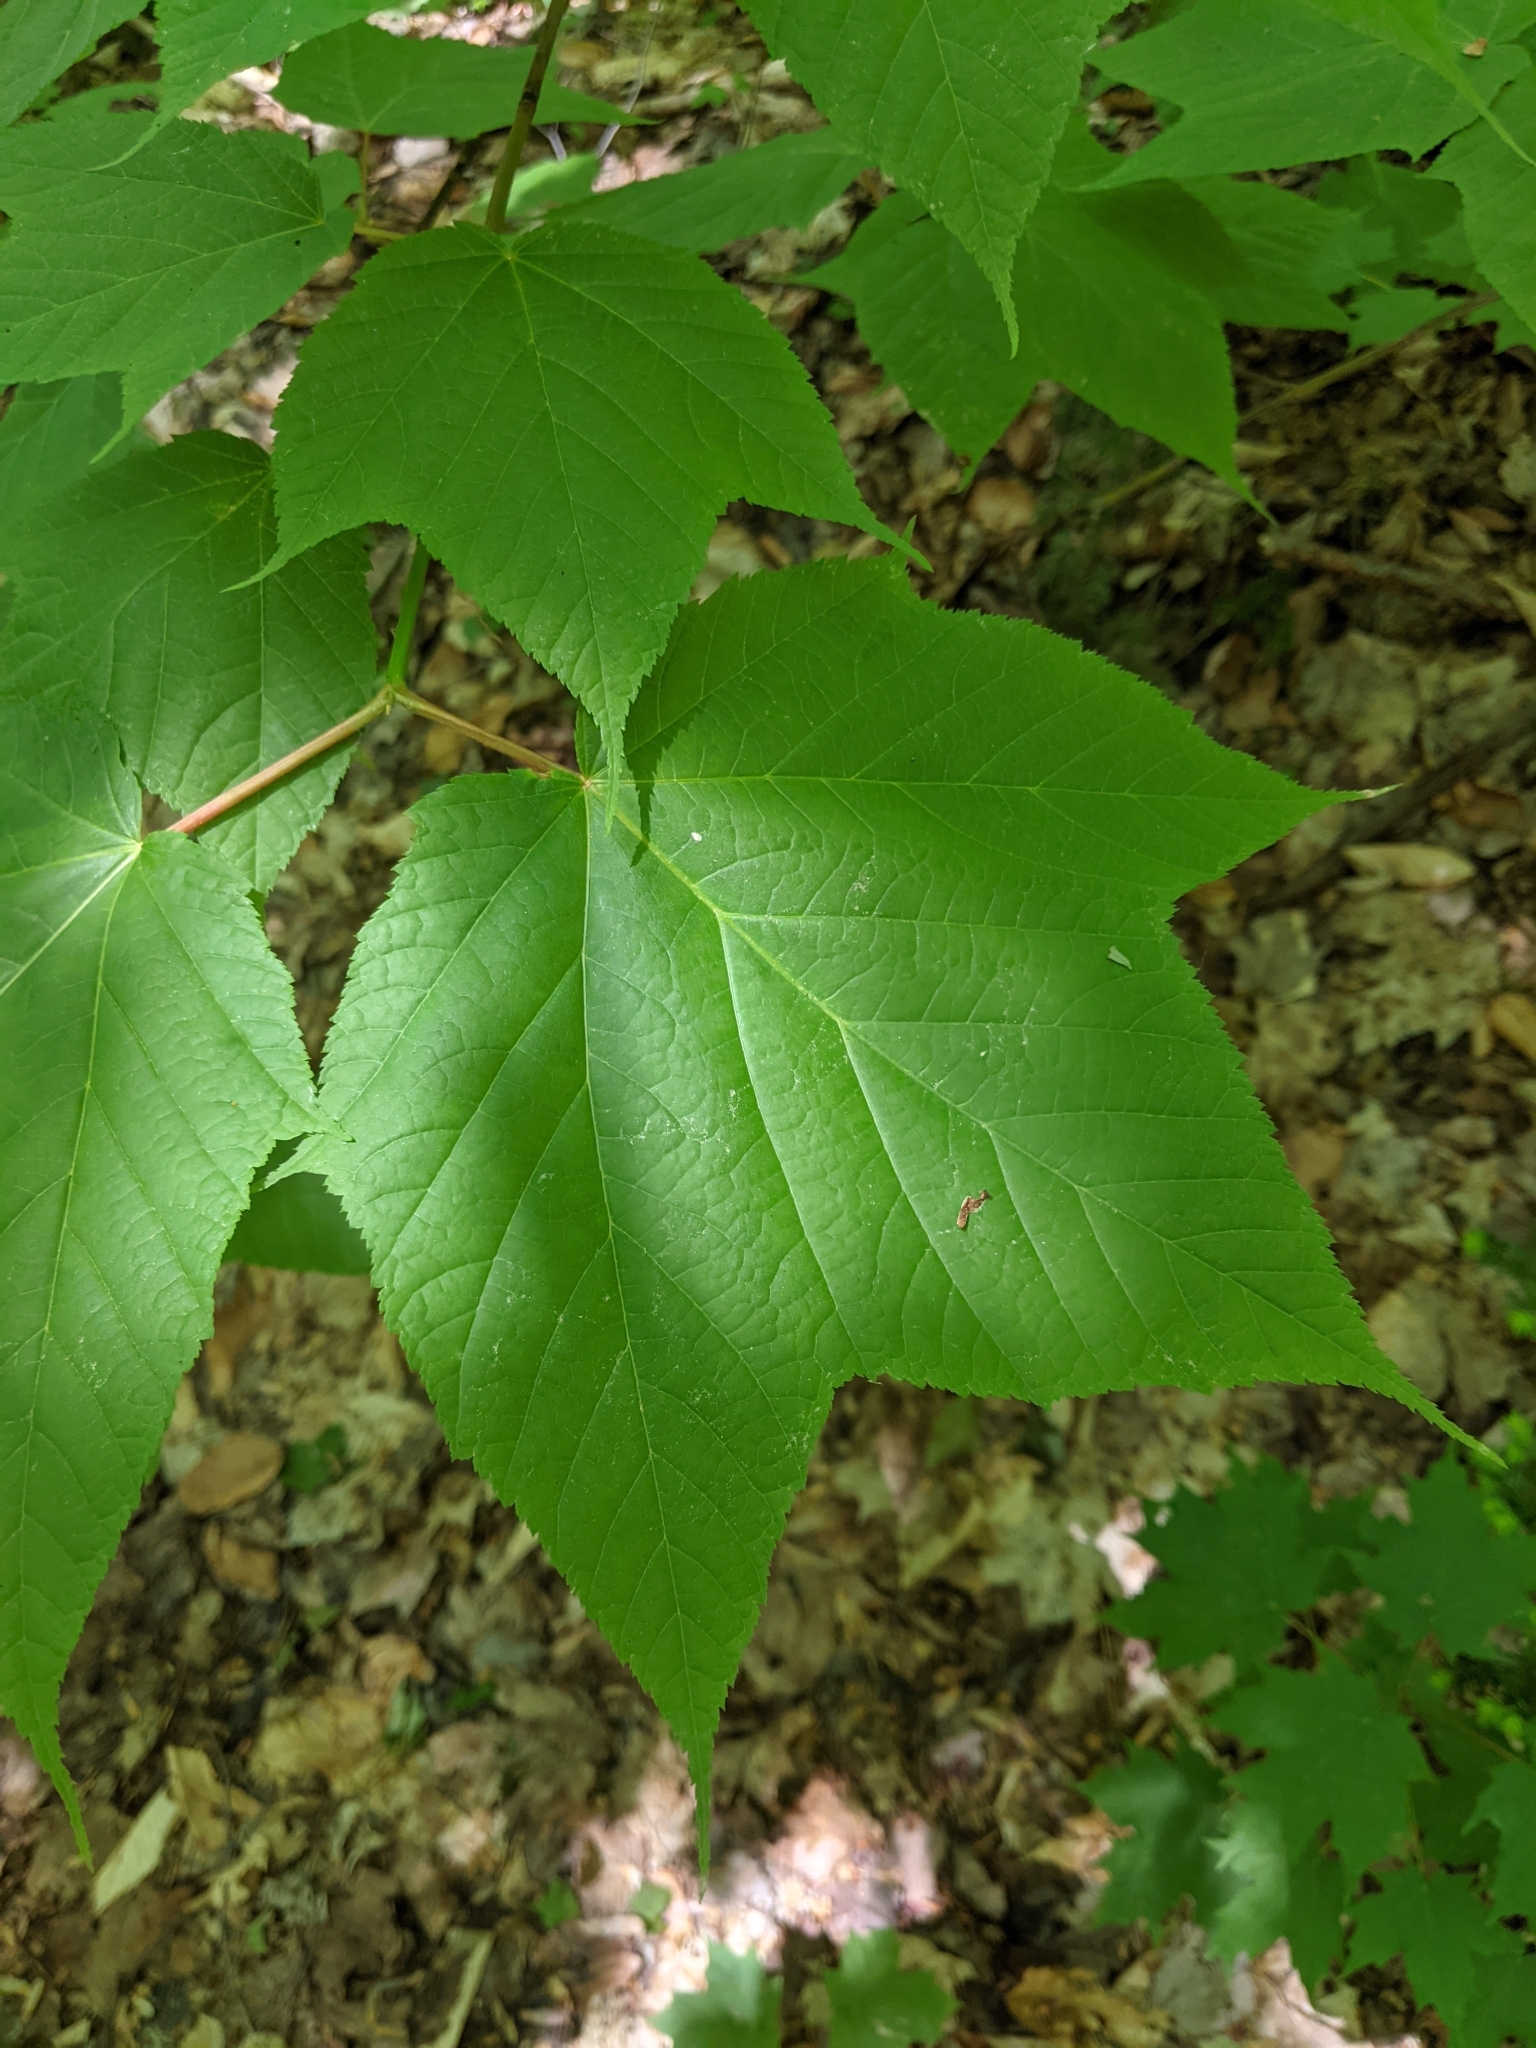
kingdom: Plantae
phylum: Tracheophyta
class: Magnoliopsida
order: Sapindales
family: Sapindaceae
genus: Acer
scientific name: Acer pensylvanicum
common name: Moosewood
